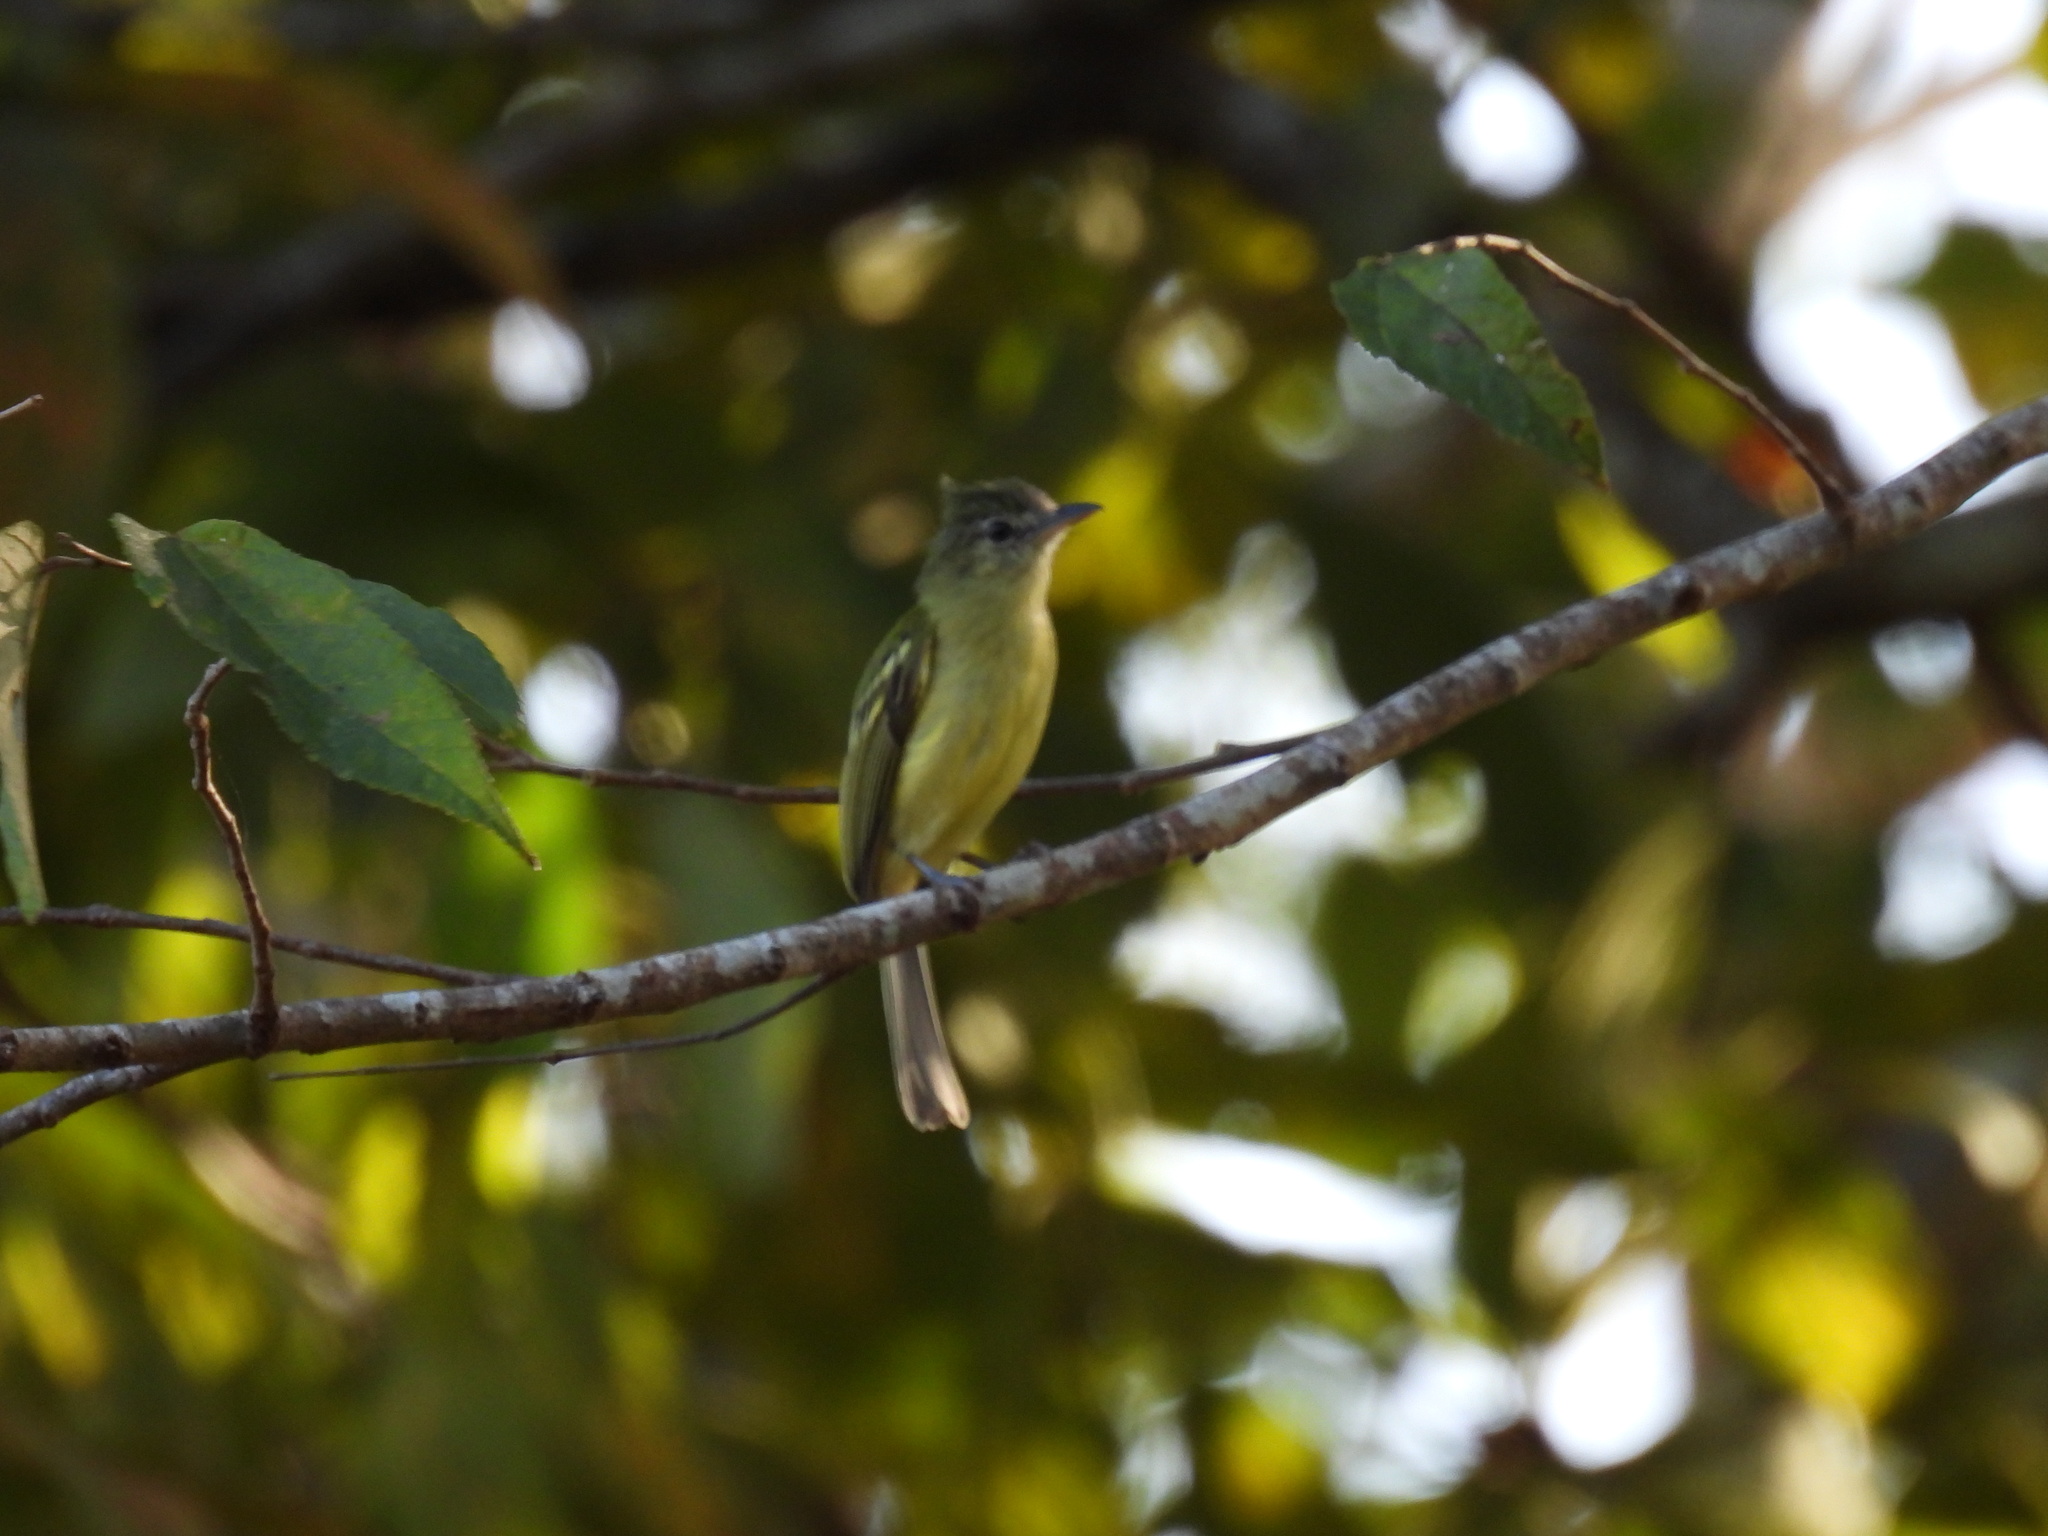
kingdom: Animalia
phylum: Chordata
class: Aves
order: Passeriformes
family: Tyrannidae
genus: Tolmomyias
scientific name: Tolmomyias sulphurescens
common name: Yellow-olive flycatcher
